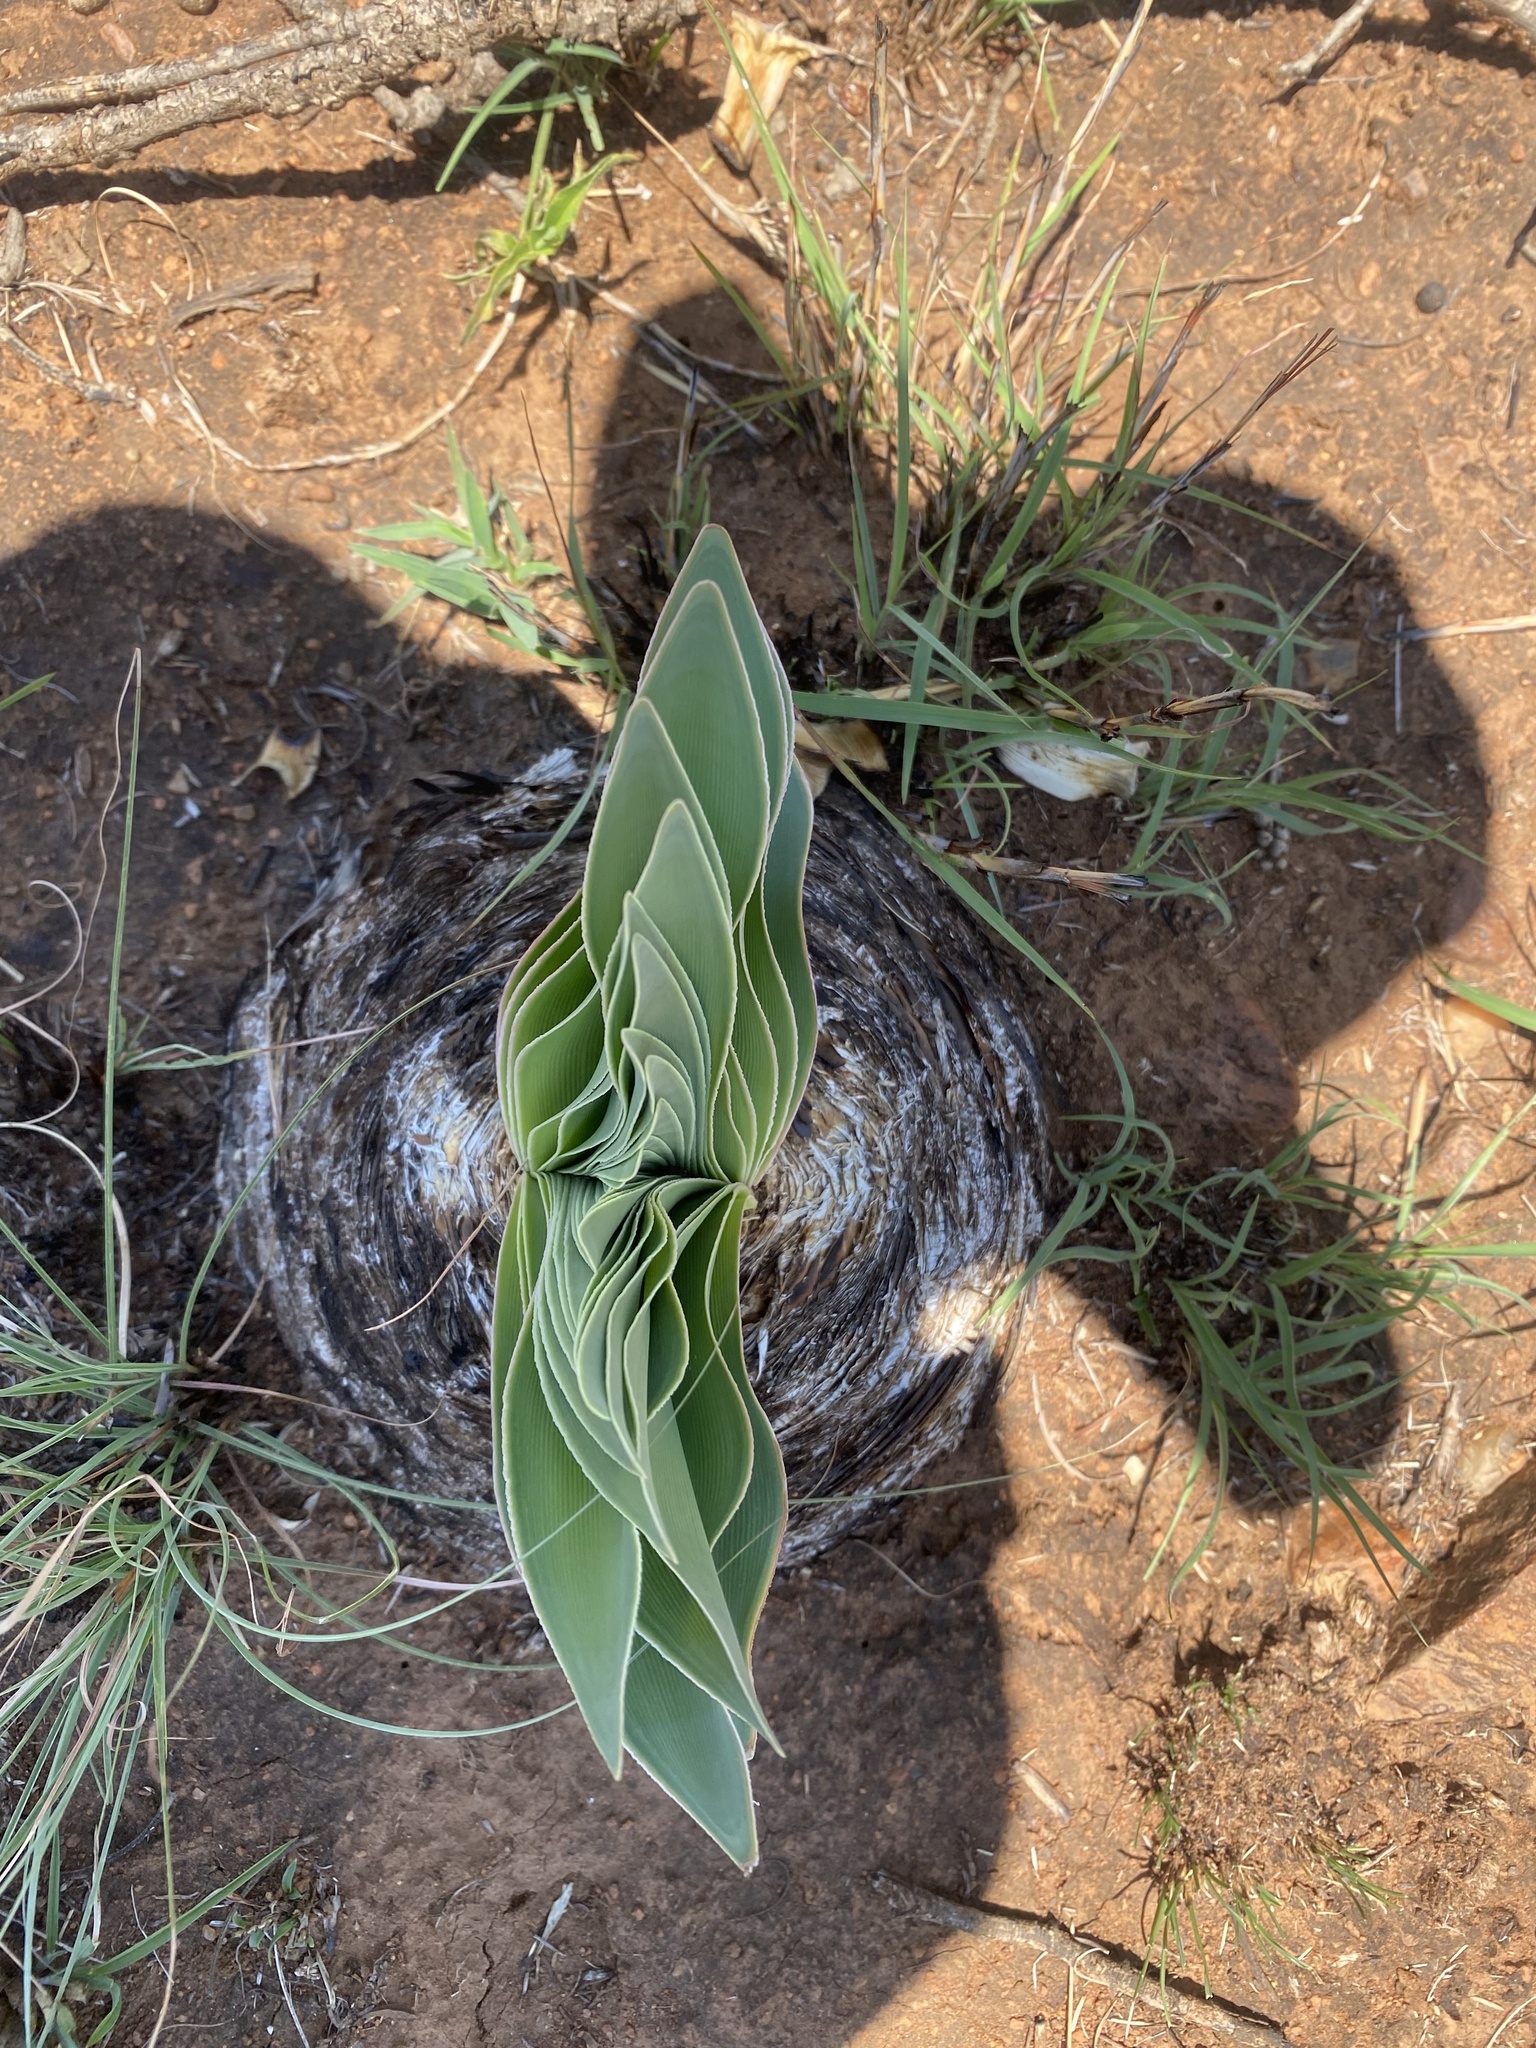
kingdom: Plantae
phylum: Tracheophyta
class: Liliopsida
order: Asparagales
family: Amaryllidaceae
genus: Boophone
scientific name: Boophone disticha
